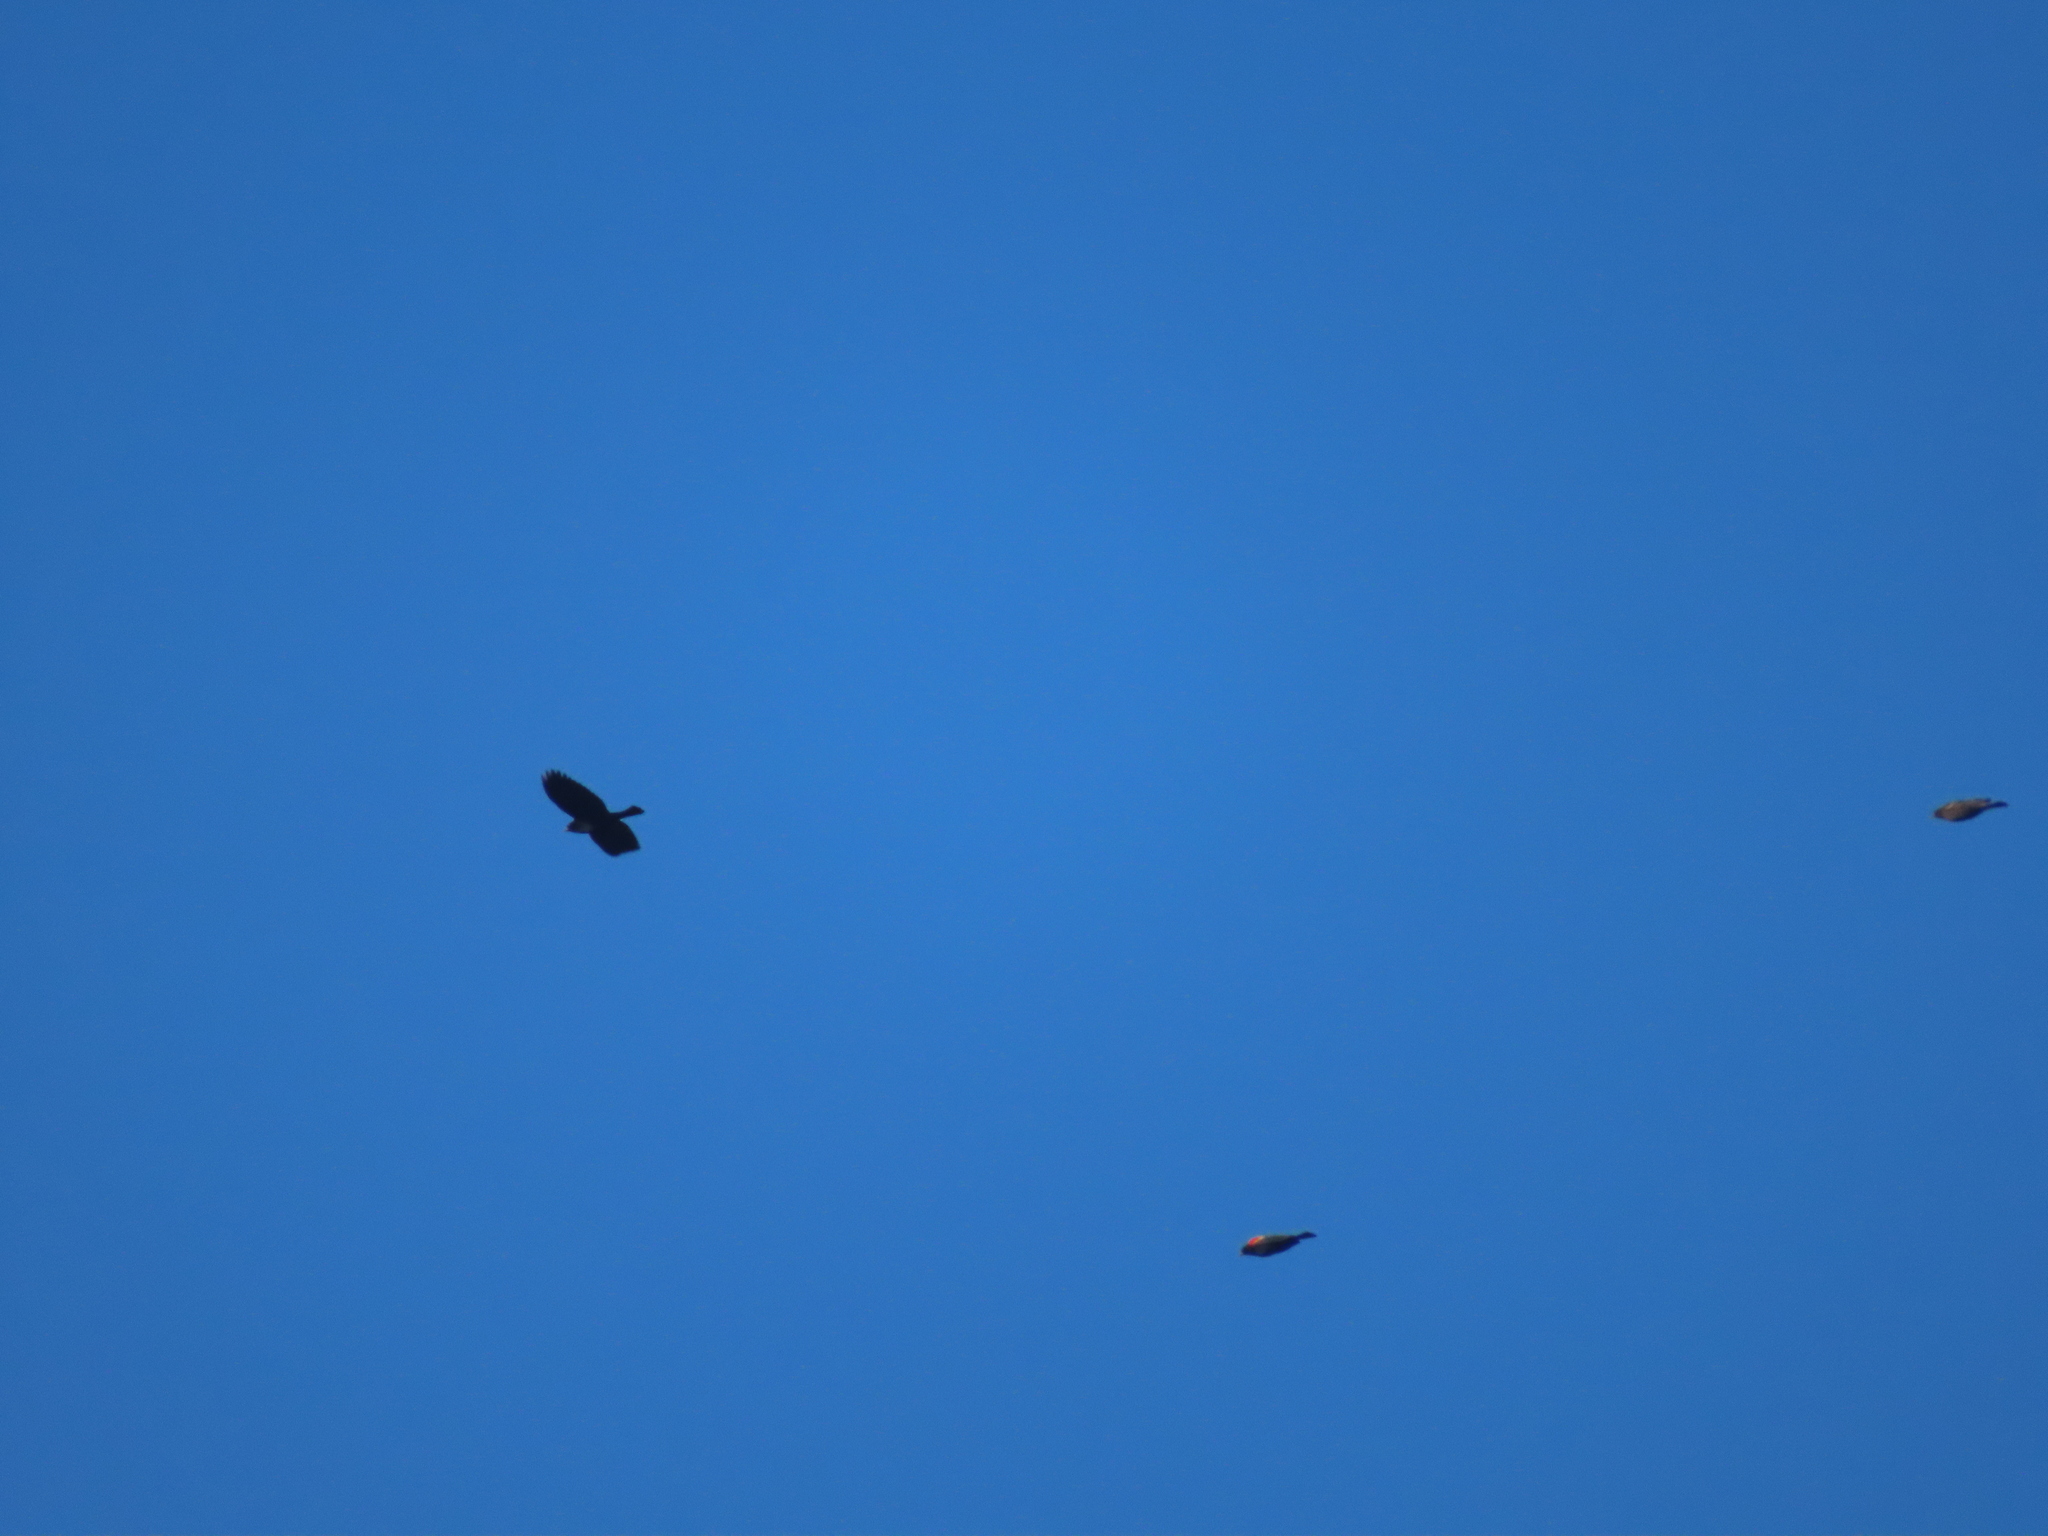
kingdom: Animalia
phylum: Chordata
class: Aves
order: Passeriformes
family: Icteridae
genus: Agelaius
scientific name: Agelaius phoeniceus
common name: Red-winged blackbird
